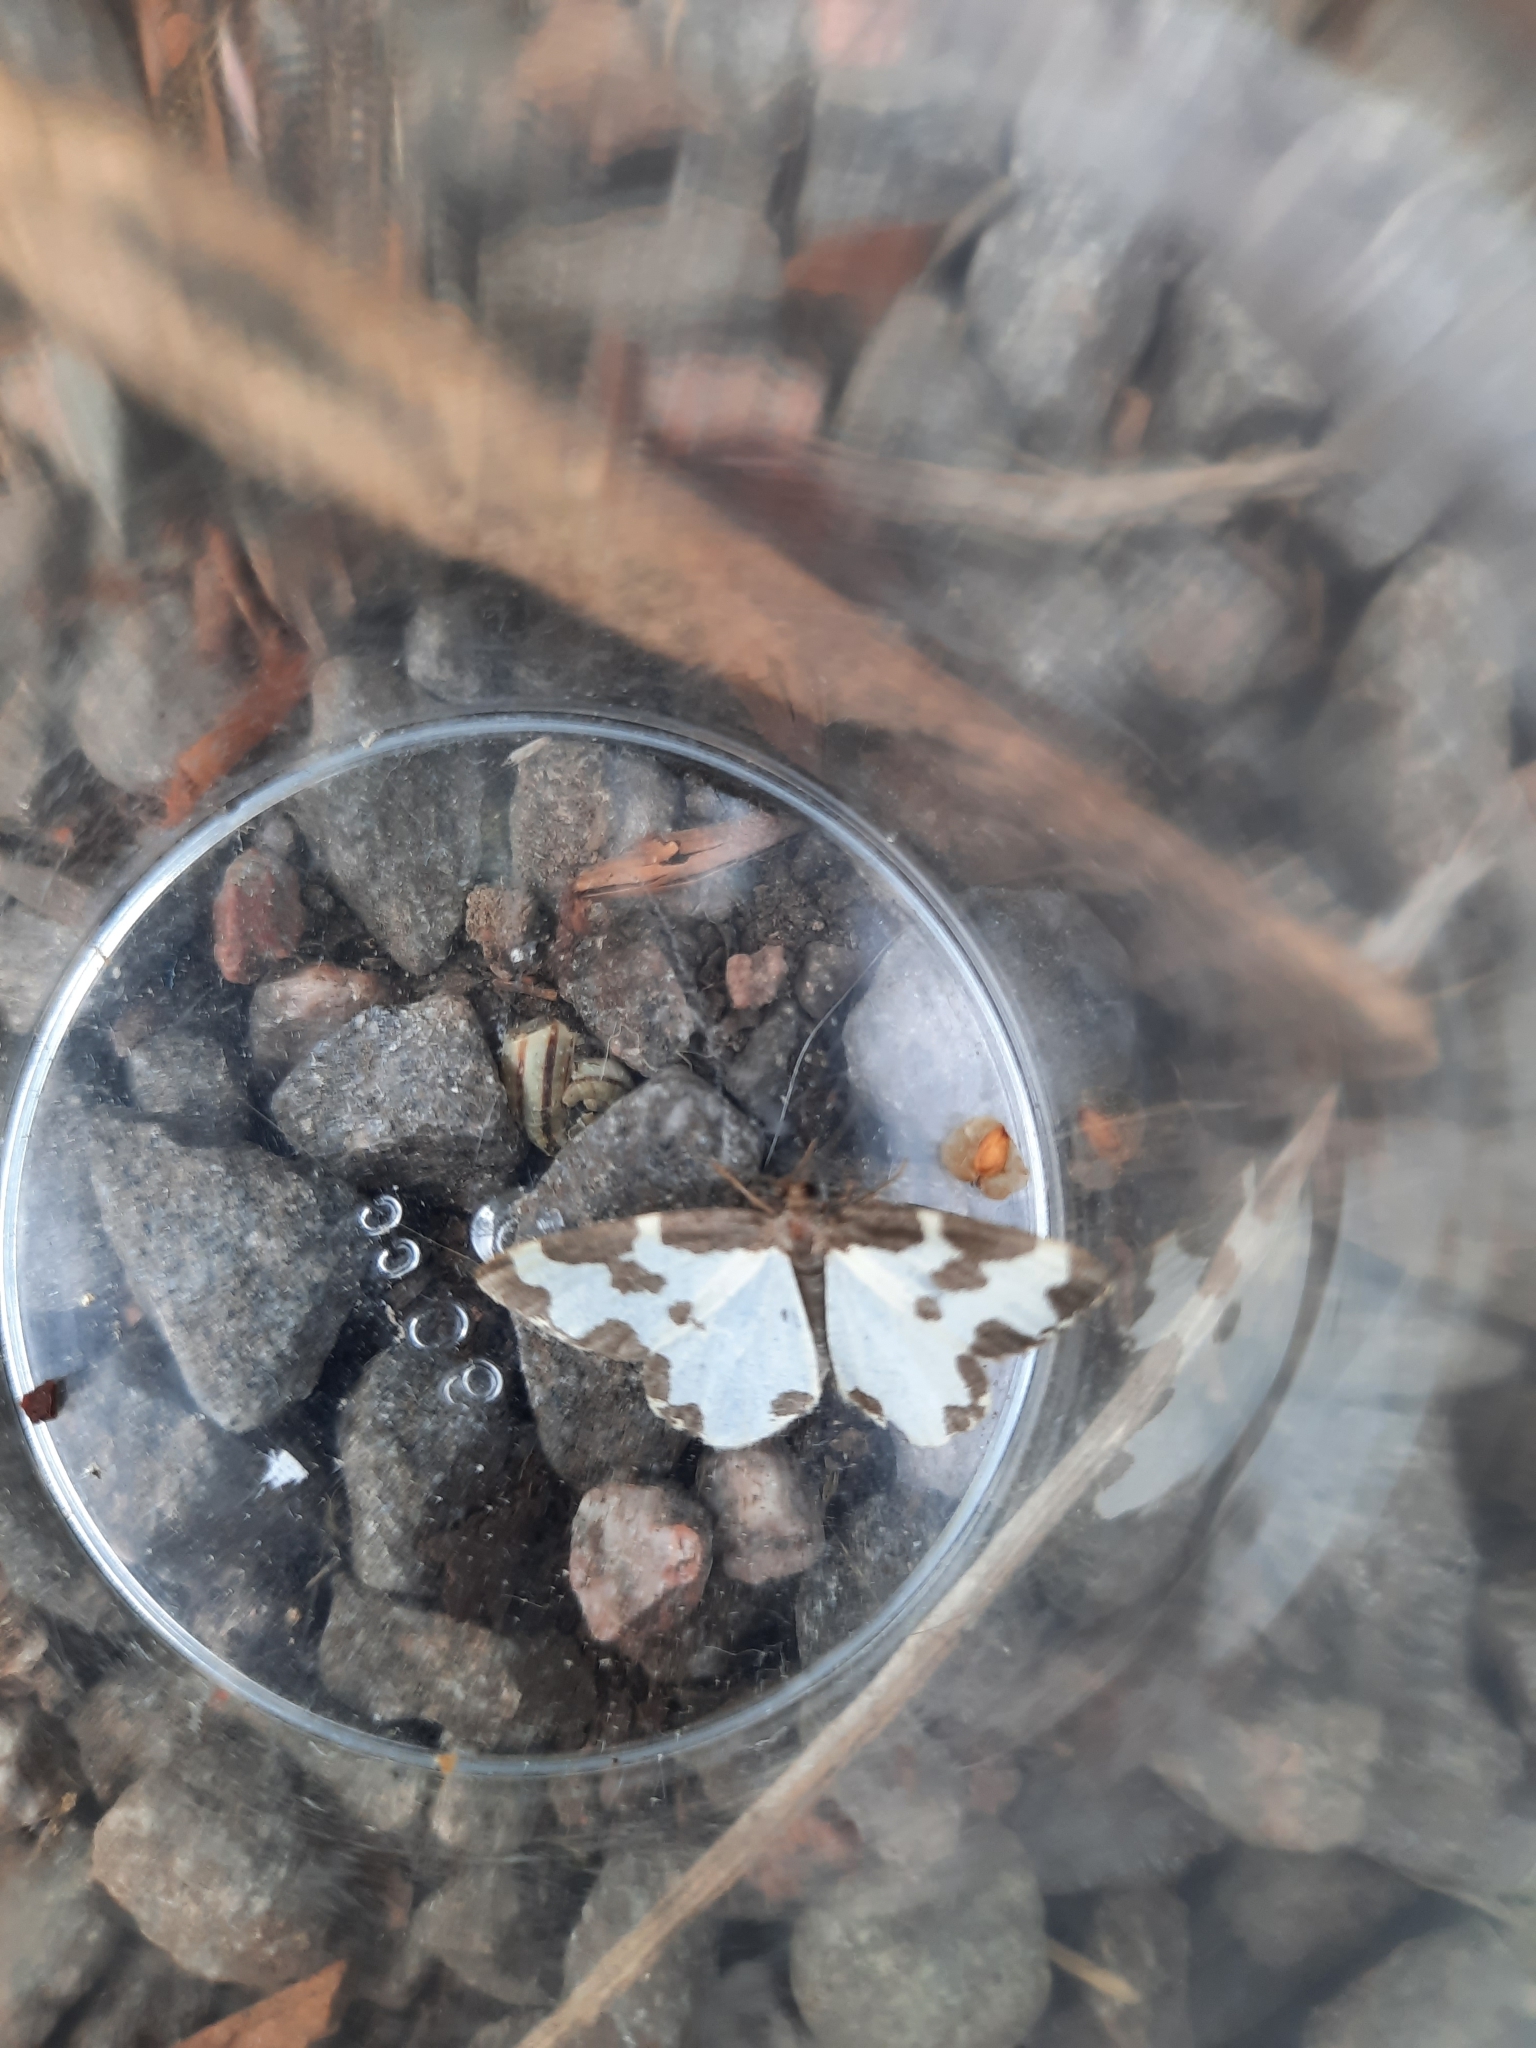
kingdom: Animalia
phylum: Arthropoda
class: Insecta
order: Lepidoptera
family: Geometridae
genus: Lomaspilis
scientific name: Lomaspilis marginata
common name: Clouded border
